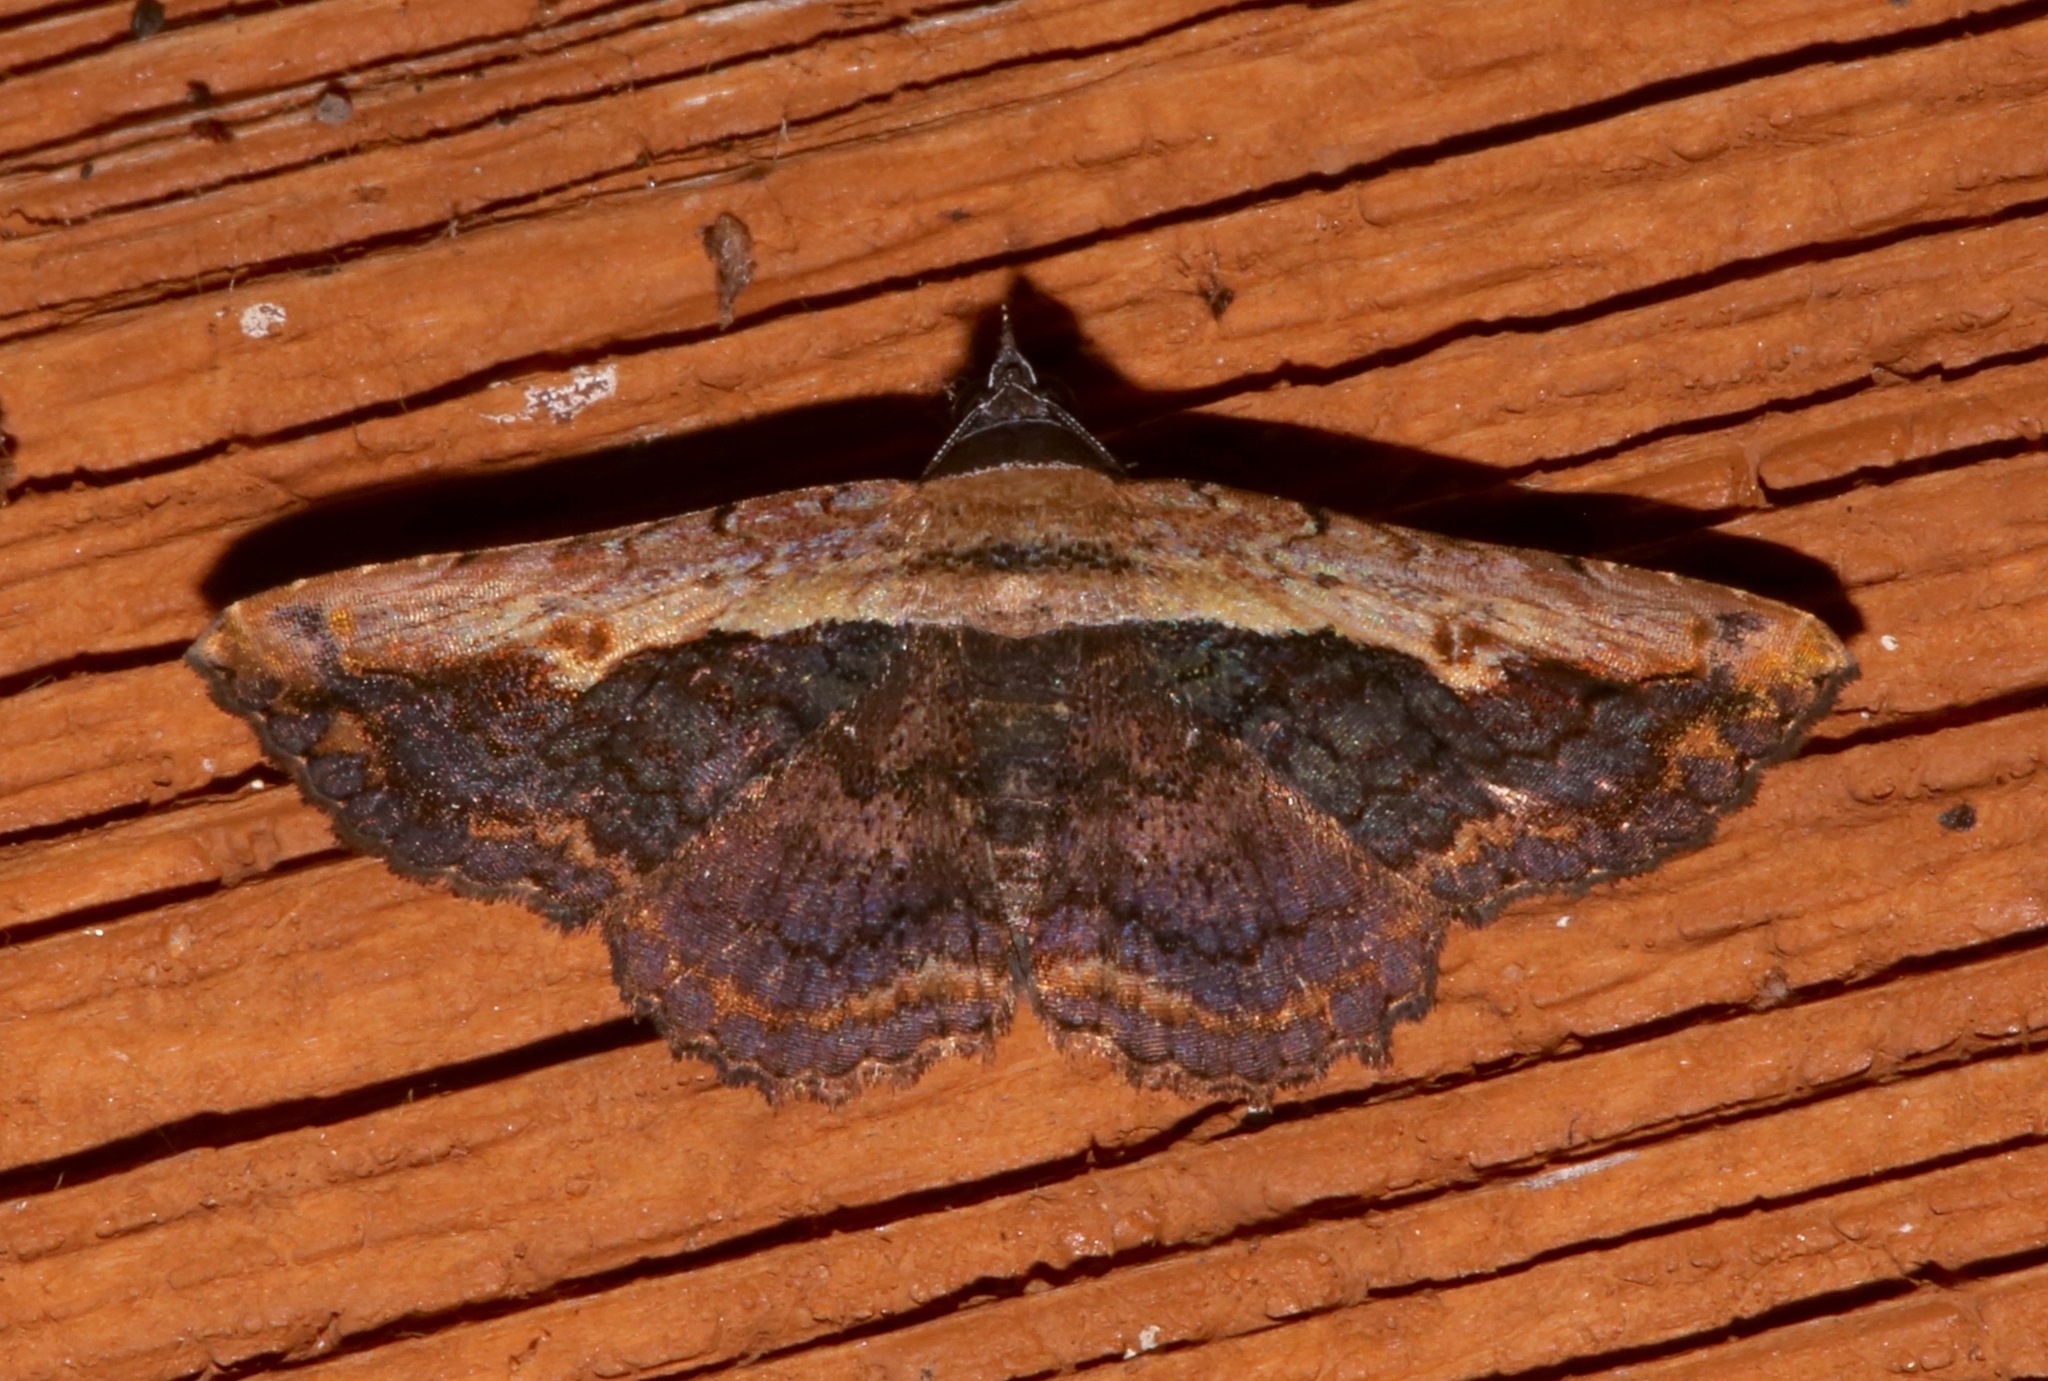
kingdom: Animalia
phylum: Arthropoda
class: Insecta
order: Lepidoptera
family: Erebidae
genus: Selenisa
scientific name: Selenisa sueroides
